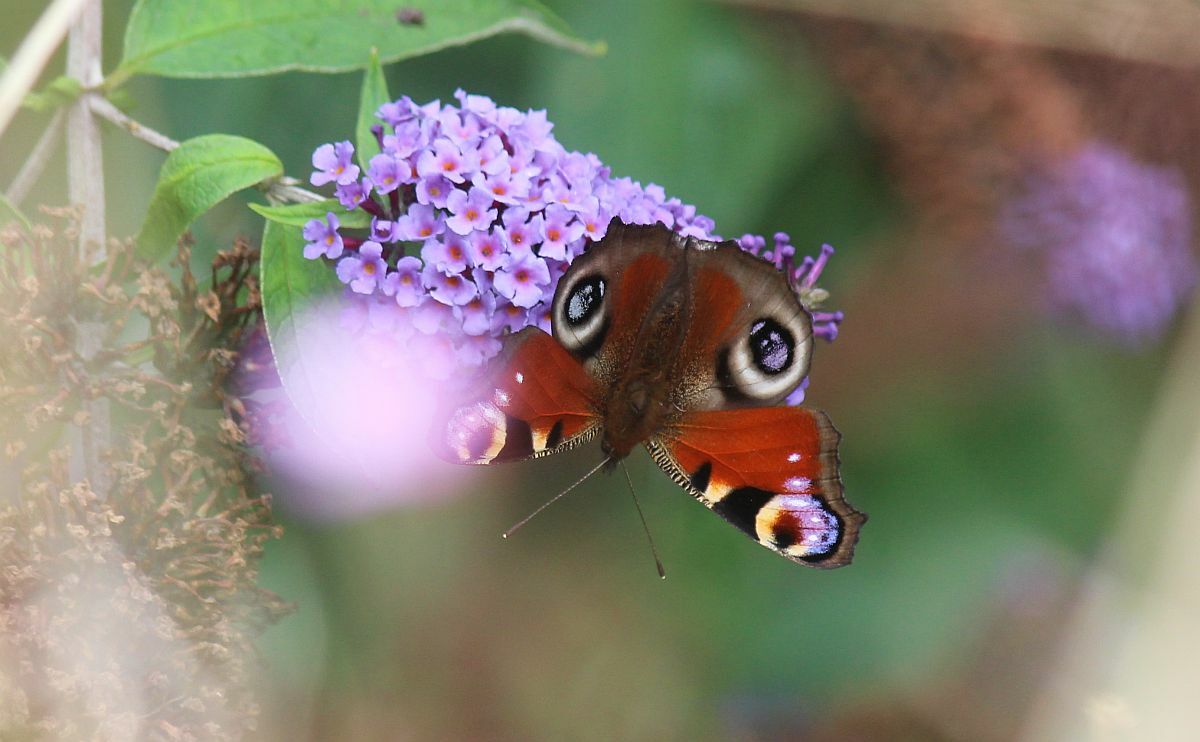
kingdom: Animalia
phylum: Arthropoda
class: Insecta
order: Lepidoptera
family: Nymphalidae
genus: Aglais
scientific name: Aglais io
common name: Peacock
